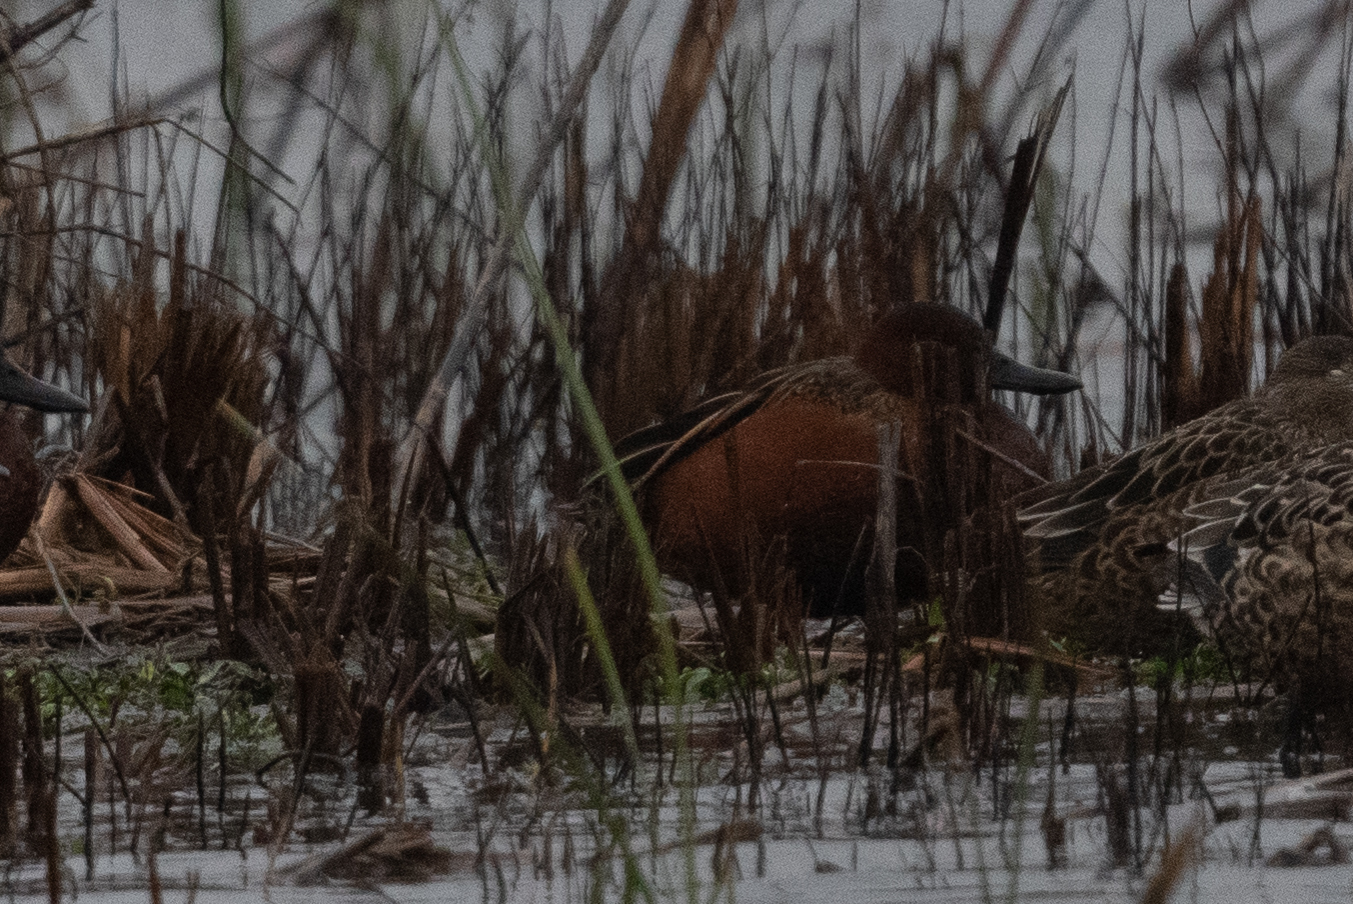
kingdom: Animalia
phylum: Chordata
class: Aves
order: Anseriformes
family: Anatidae
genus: Spatula
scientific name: Spatula cyanoptera
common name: Cinnamon teal
